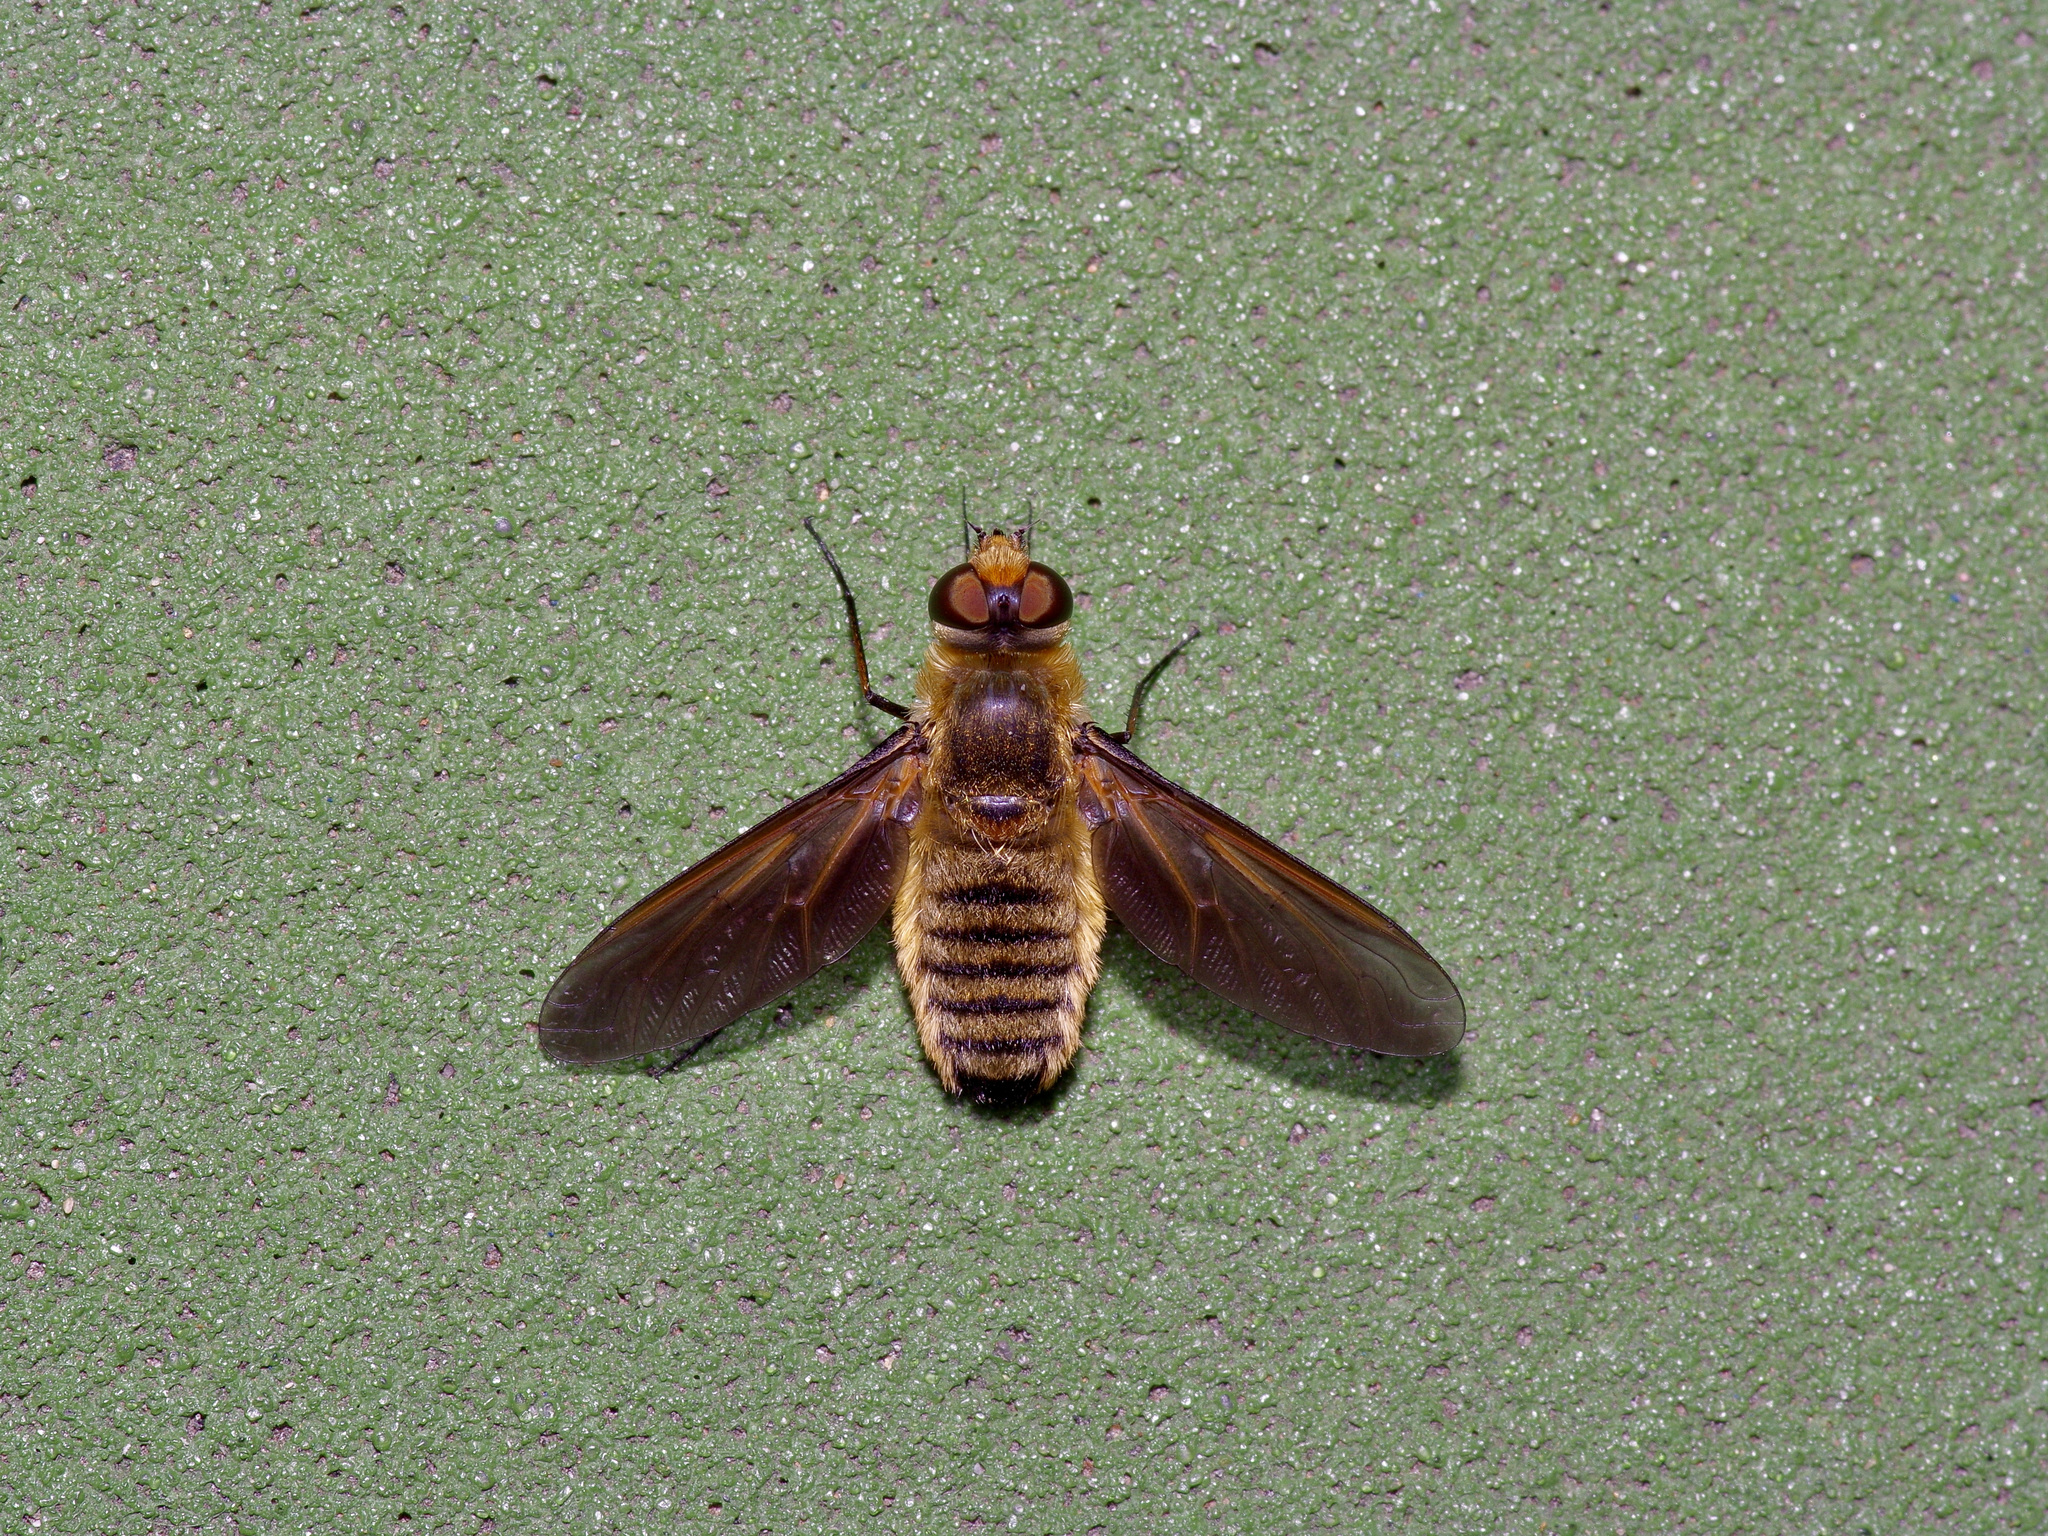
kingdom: Animalia
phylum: Arthropoda
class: Insecta
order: Diptera
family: Bombyliidae
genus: Poecilanthrax
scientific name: Poecilanthrax lucifer
